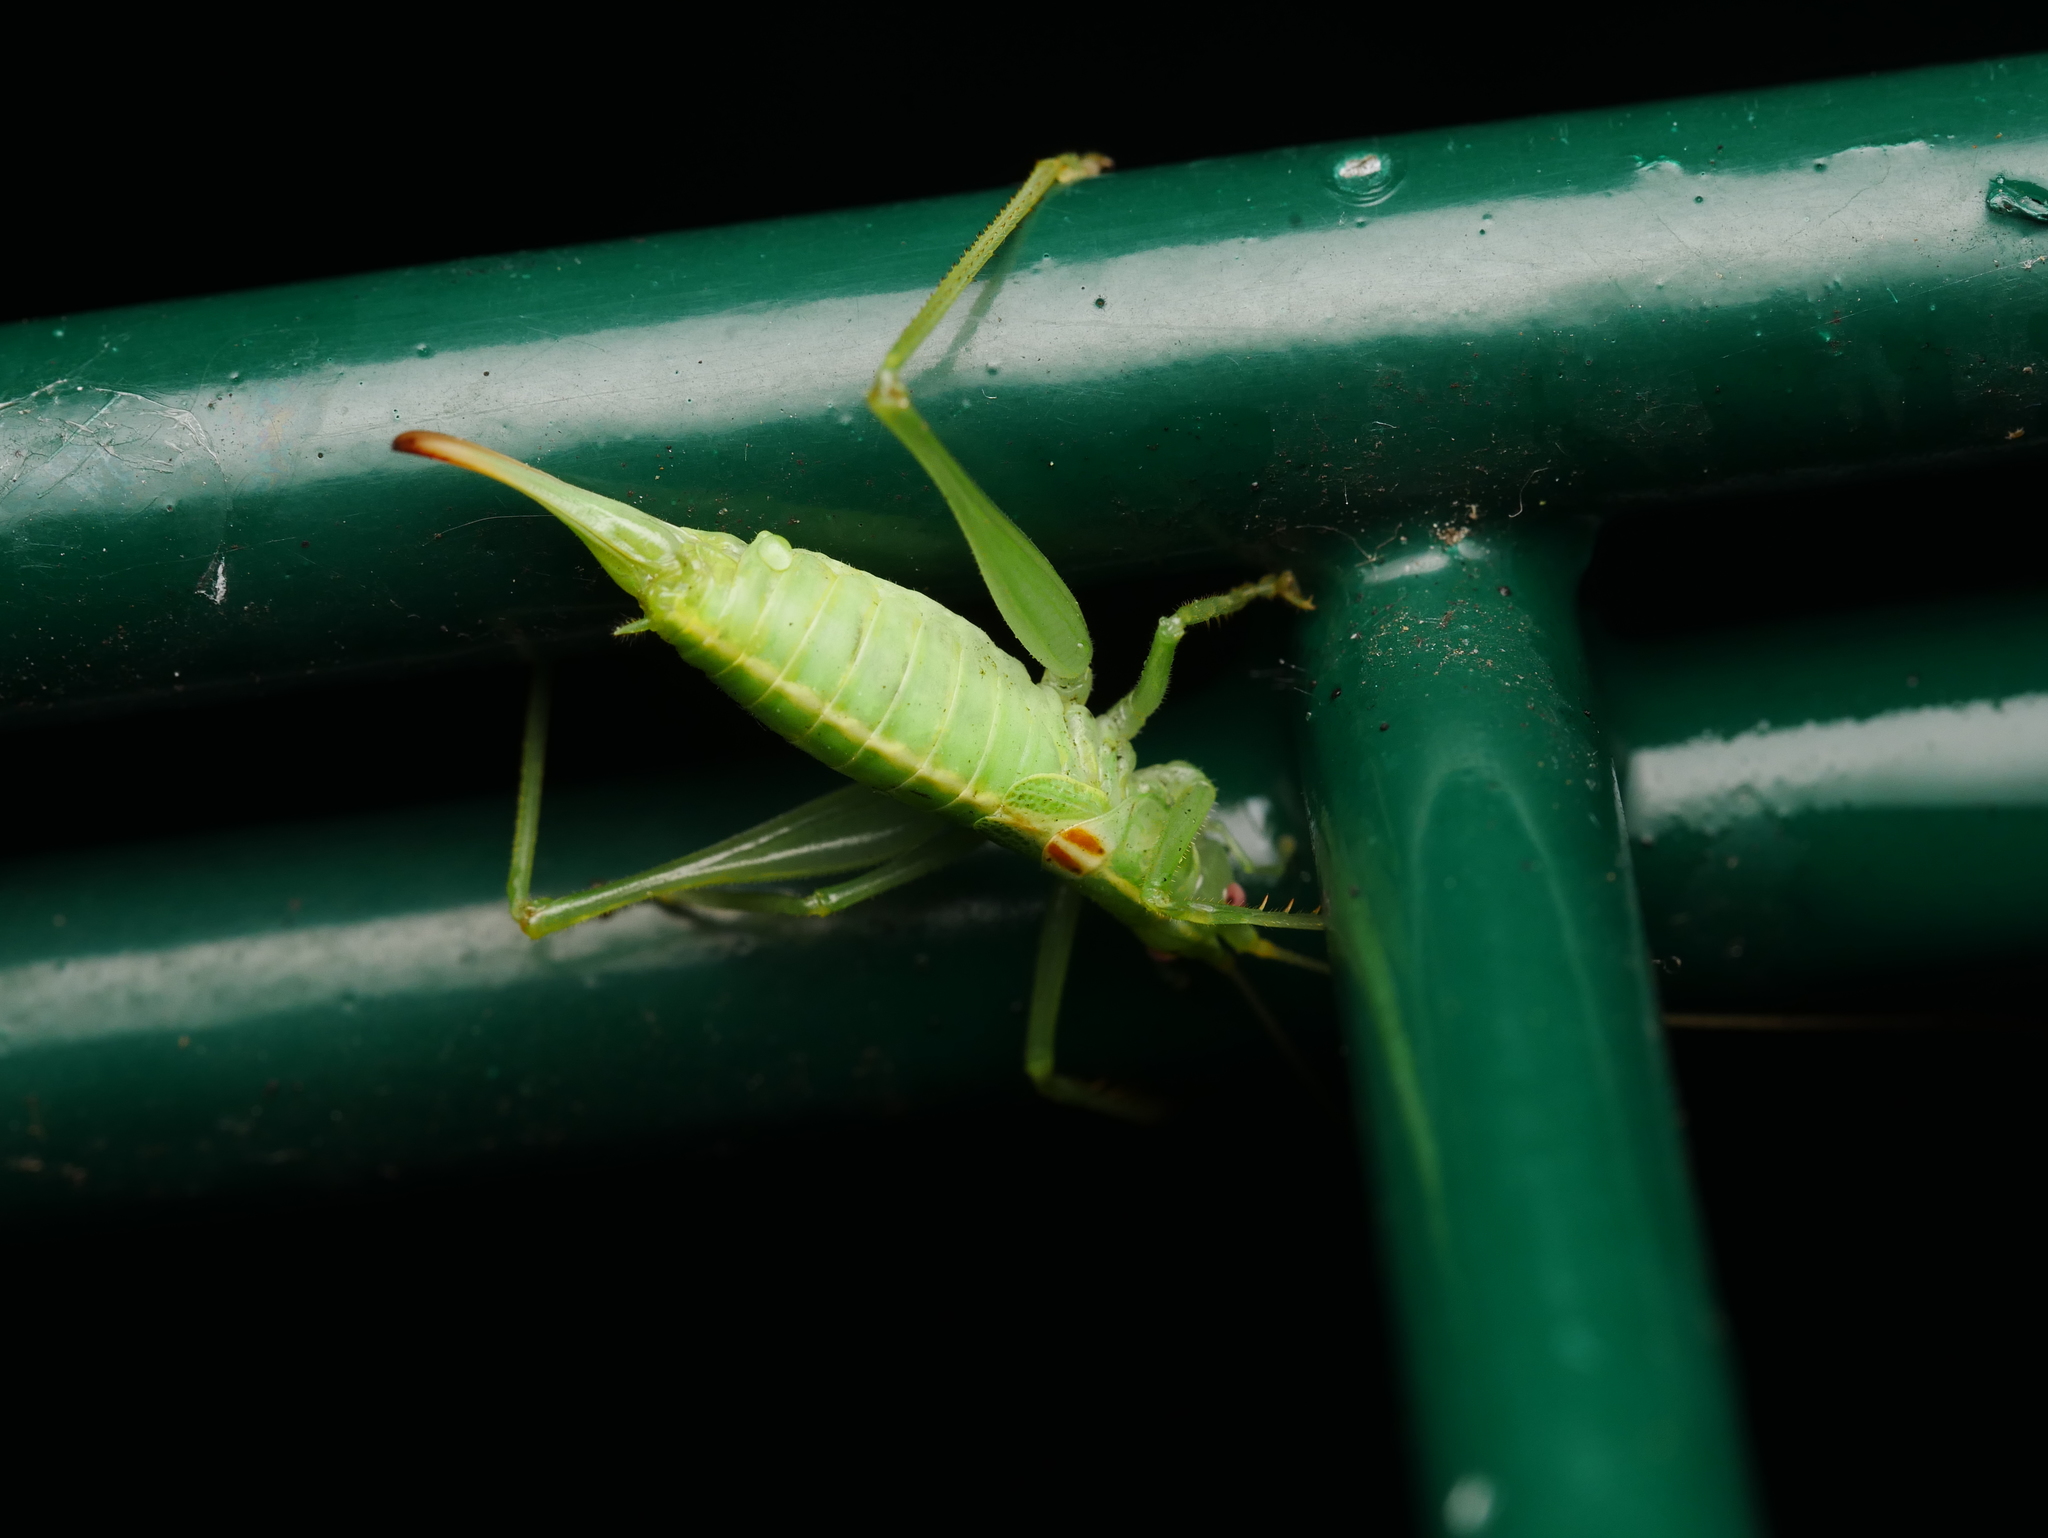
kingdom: Animalia
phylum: Arthropoda
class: Insecta
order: Orthoptera
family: Tettigoniidae
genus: Meconema
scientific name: Meconema meridionale
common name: Southern oak bush-cricket
